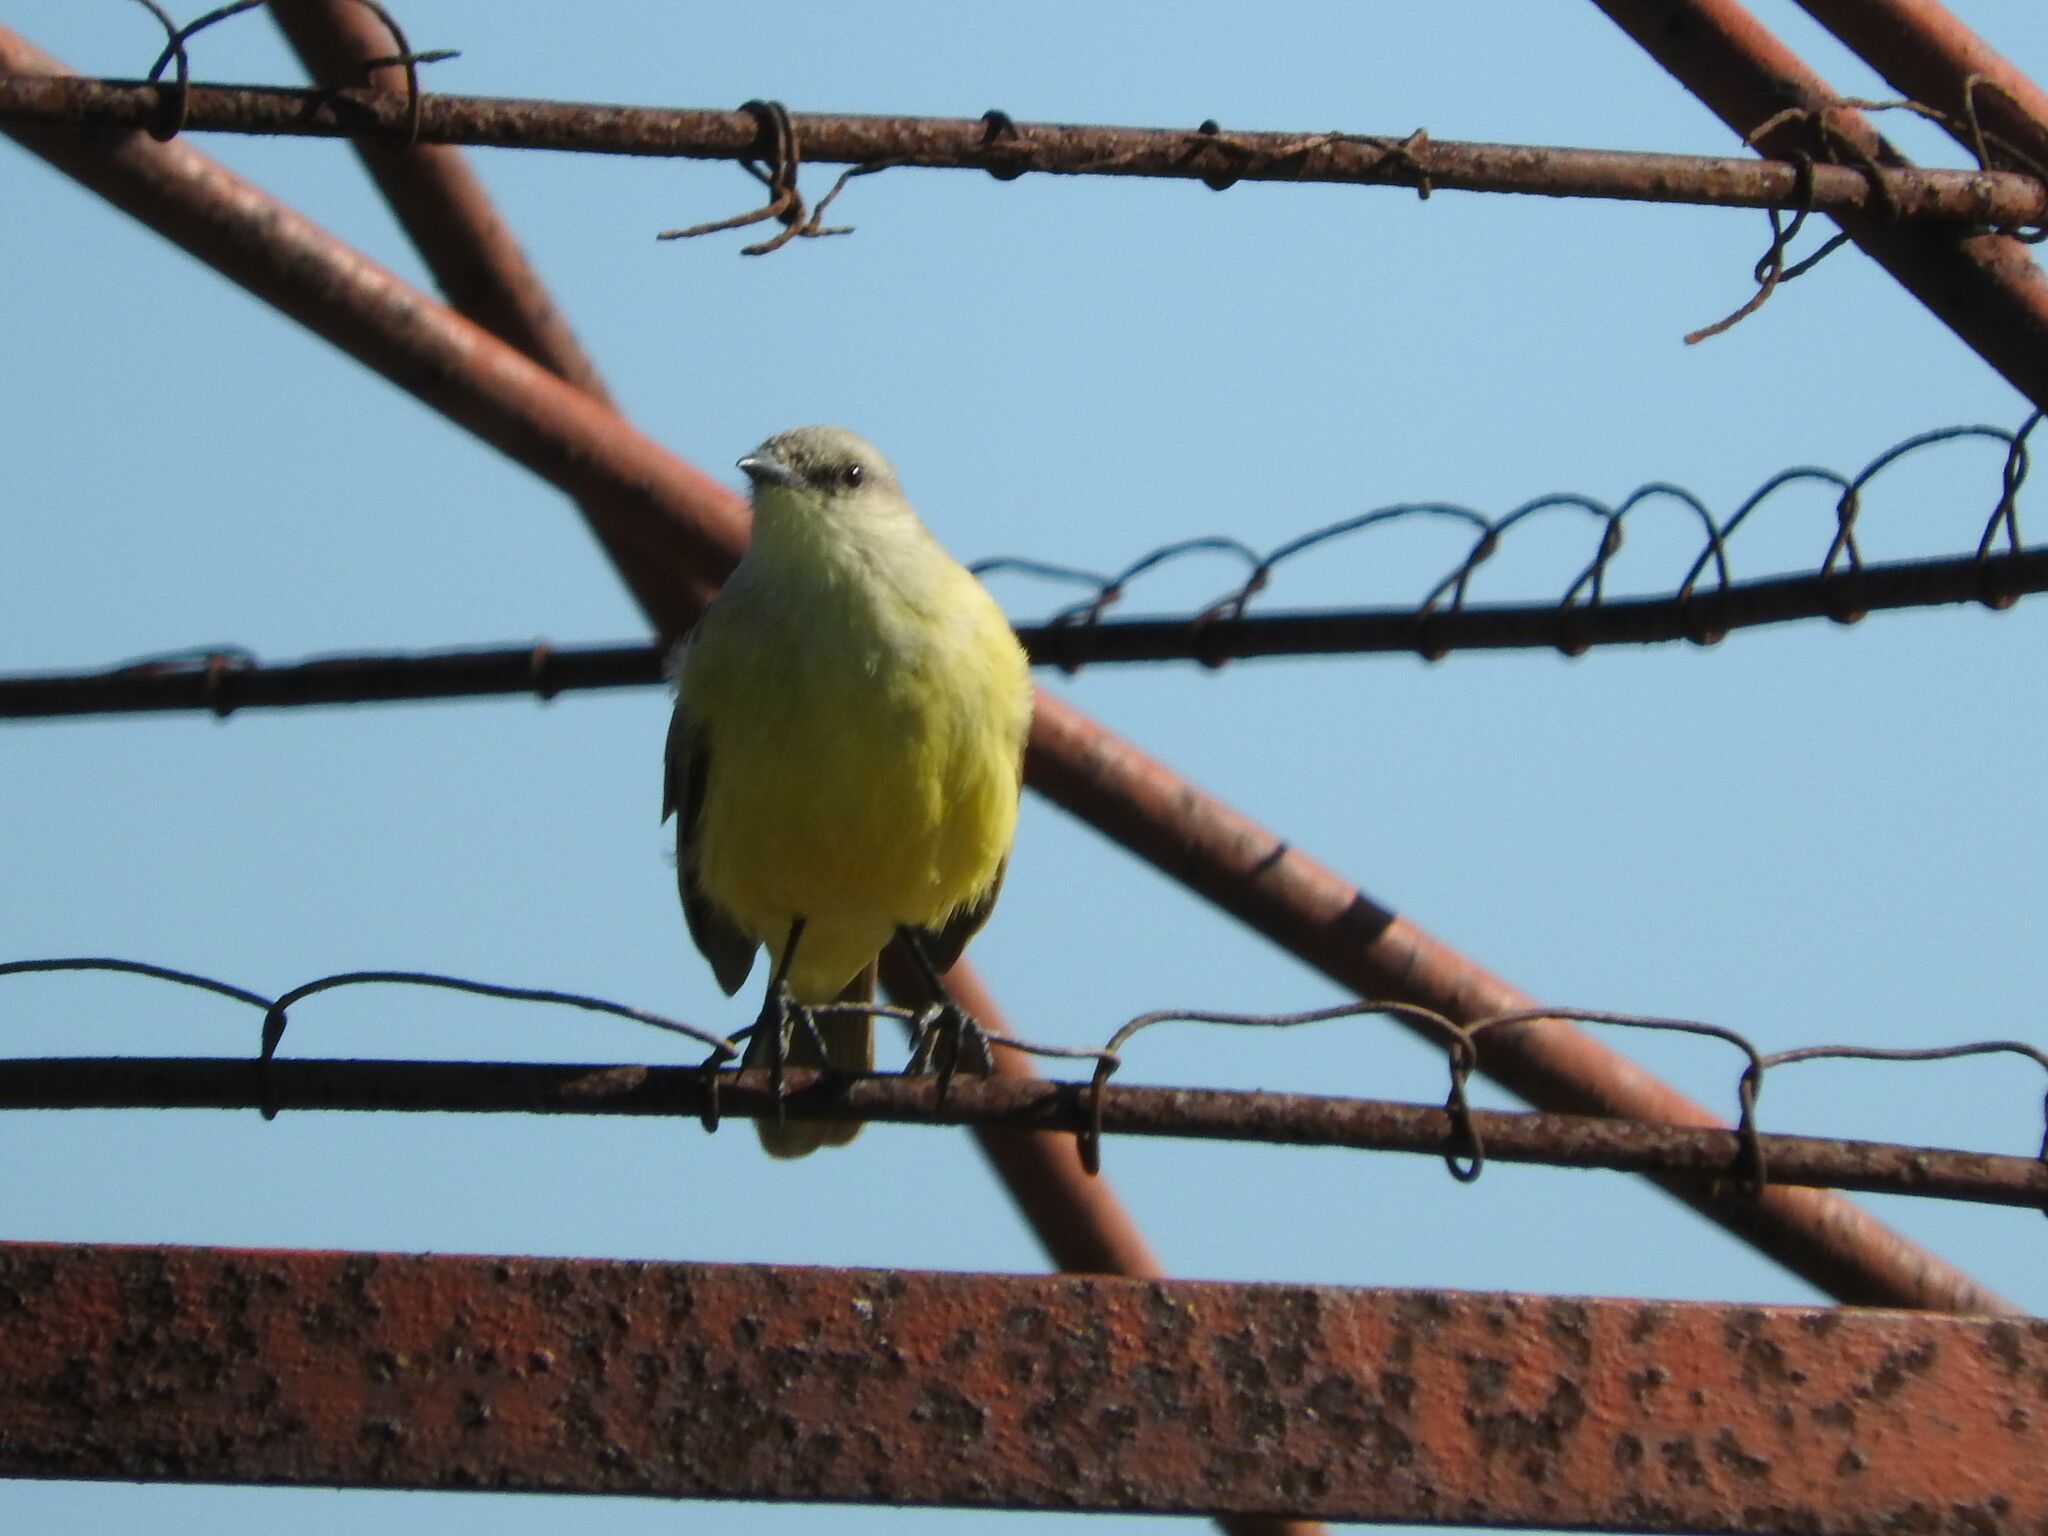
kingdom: Animalia
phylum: Chordata
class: Aves
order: Passeriformes
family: Tyrannidae
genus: Machetornis
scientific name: Machetornis rixosa
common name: Cattle tyrant
